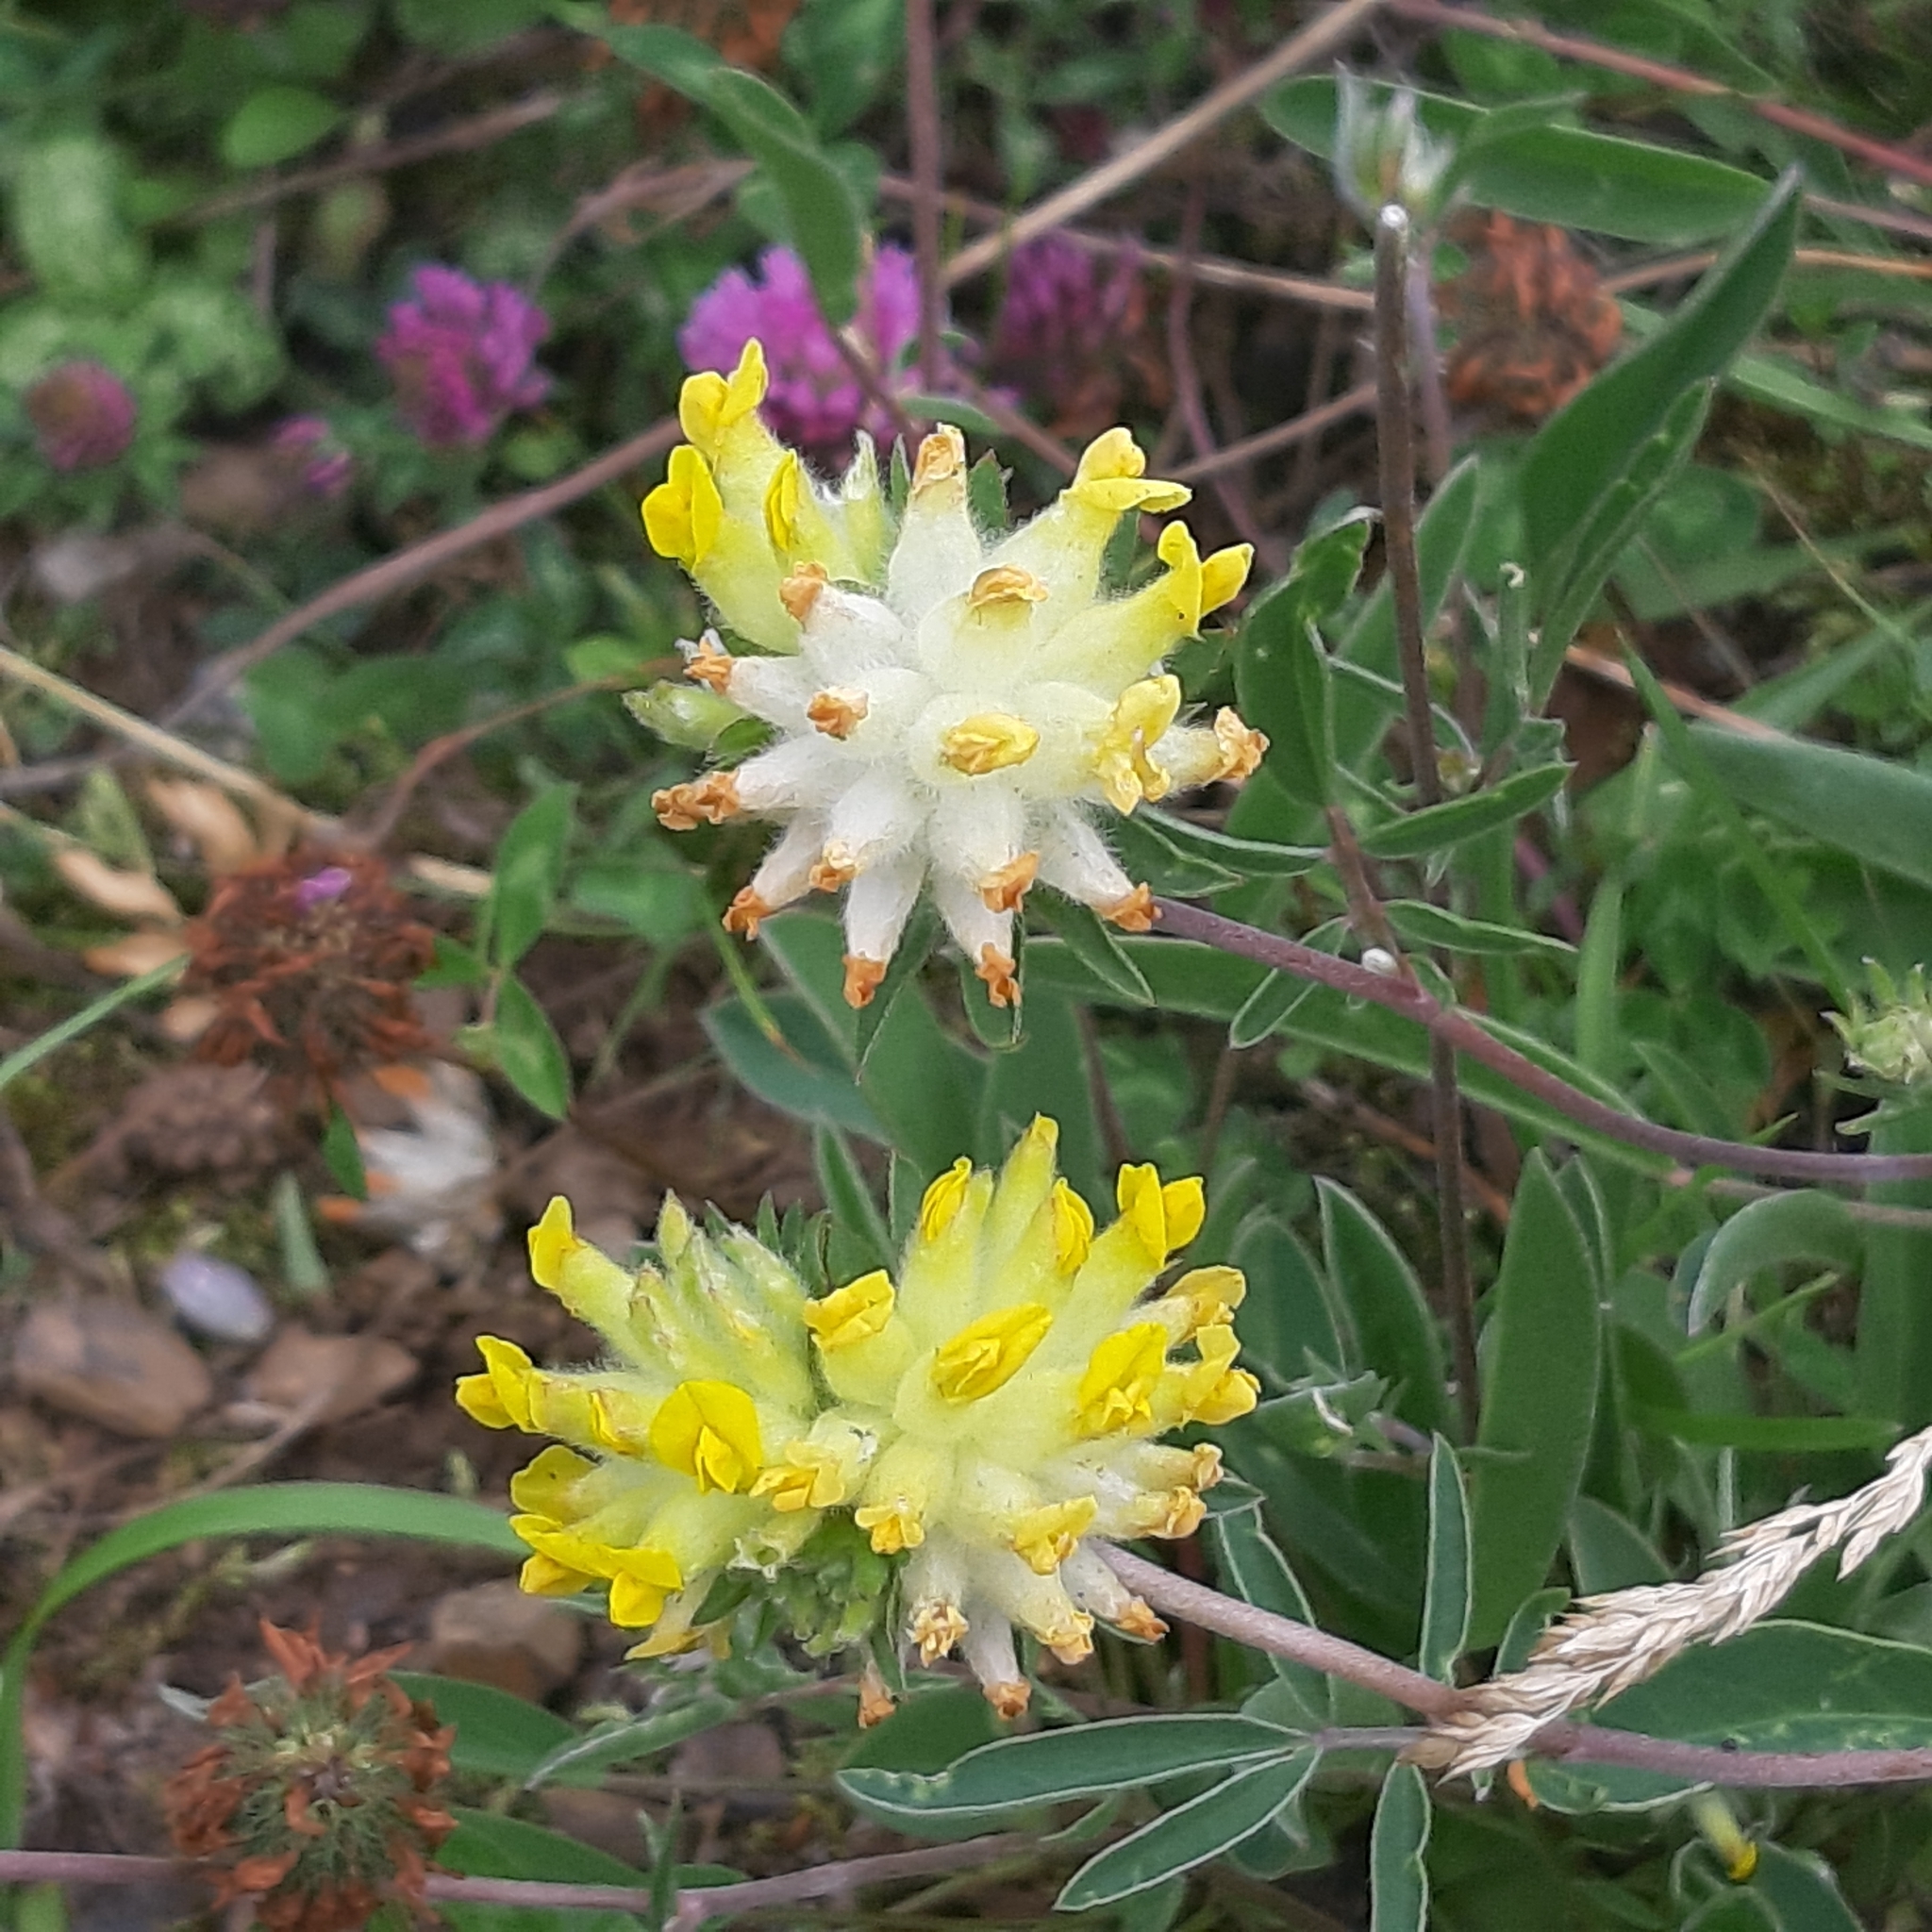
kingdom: Plantae
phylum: Tracheophyta
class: Magnoliopsida
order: Fabales
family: Fabaceae
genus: Anthyllis
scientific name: Anthyllis vulneraria
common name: Kidney vetch
